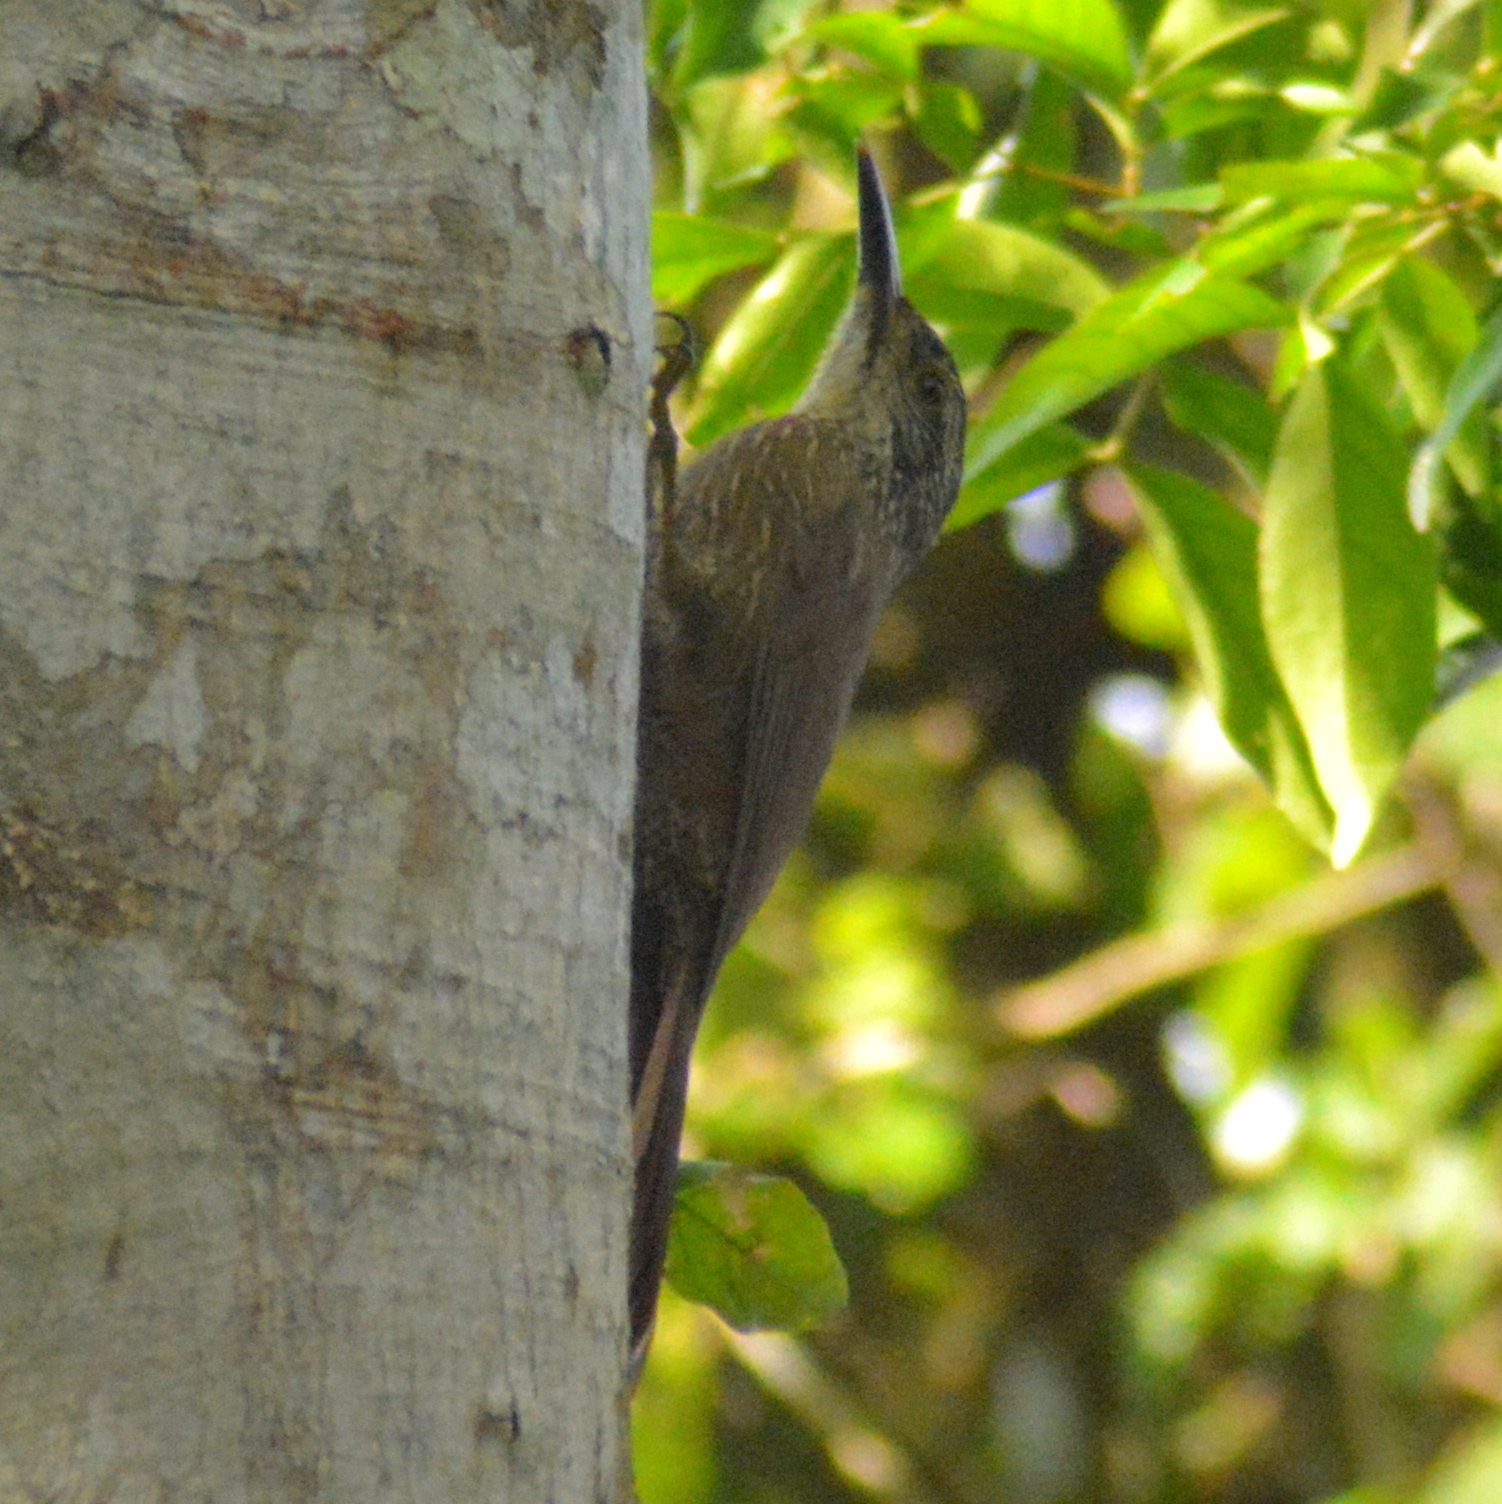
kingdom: Animalia
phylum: Chordata
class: Aves
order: Passeriformes
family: Furnariidae
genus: Dendrocolaptes
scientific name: Dendrocolaptes platyrostris
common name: Planalto woodcreeper
